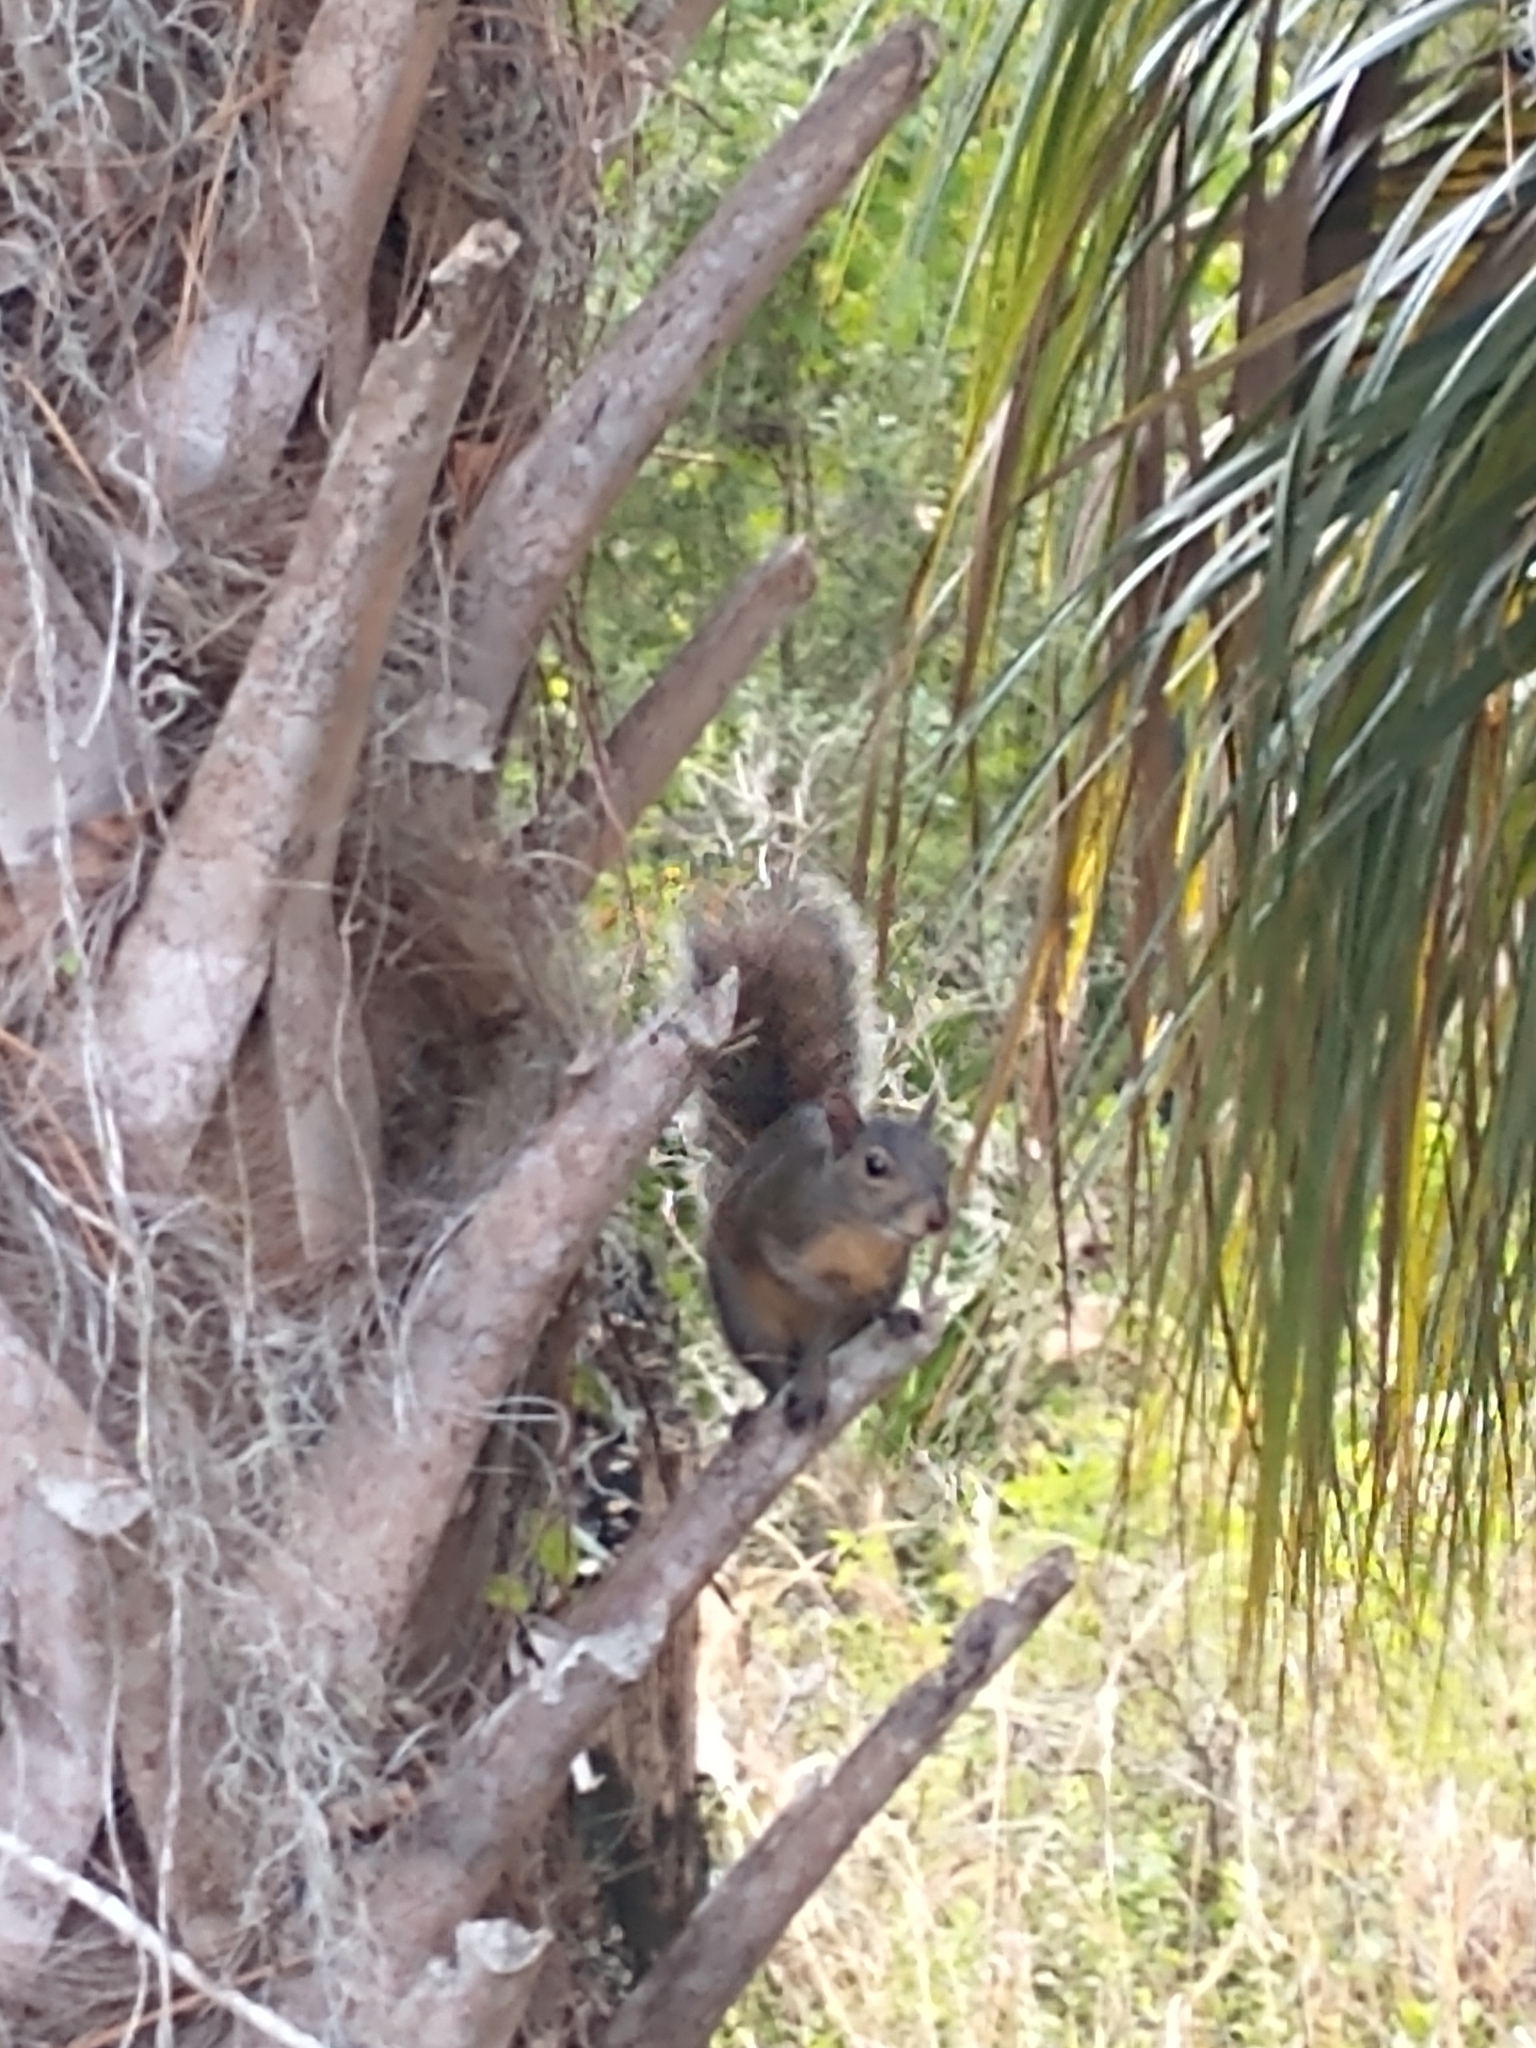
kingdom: Animalia
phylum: Chordata
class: Mammalia
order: Rodentia
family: Sciuridae
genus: Sciurus
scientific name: Sciurus niger
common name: Fox squirrel
